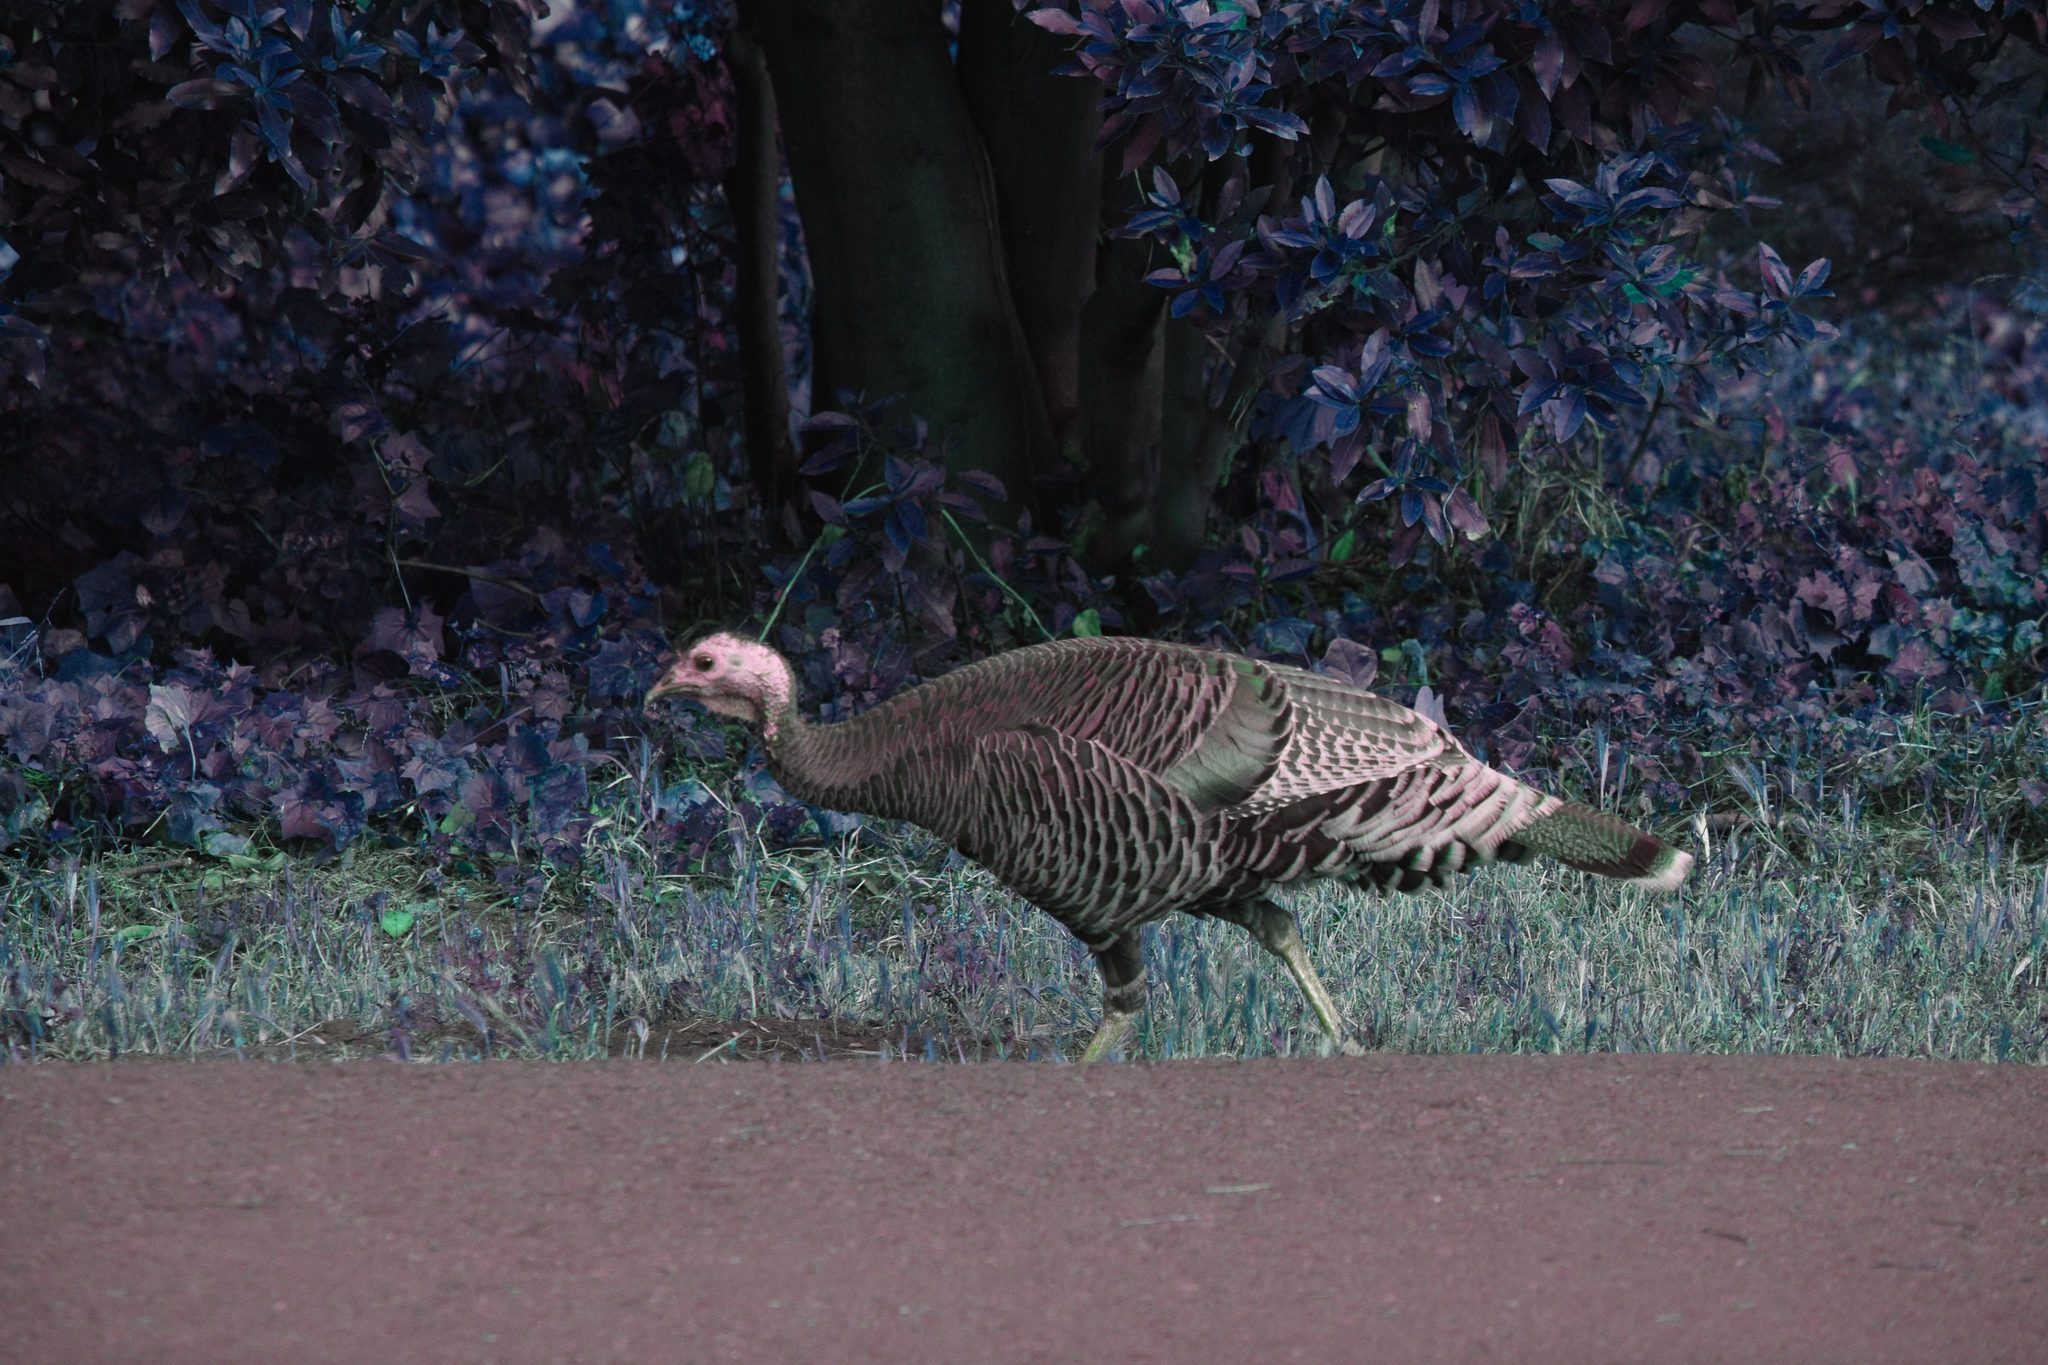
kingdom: Animalia
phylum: Chordata
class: Aves
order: Galliformes
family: Phasianidae
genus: Meleagris
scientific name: Meleagris gallopavo
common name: Wild turkey
